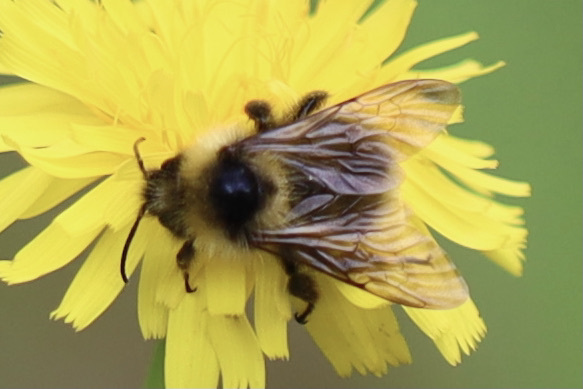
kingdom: Animalia
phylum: Arthropoda
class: Insecta
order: Hymenoptera
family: Apidae
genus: Bombus
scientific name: Bombus flavidus
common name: Fernald cuckoo bumble bee
